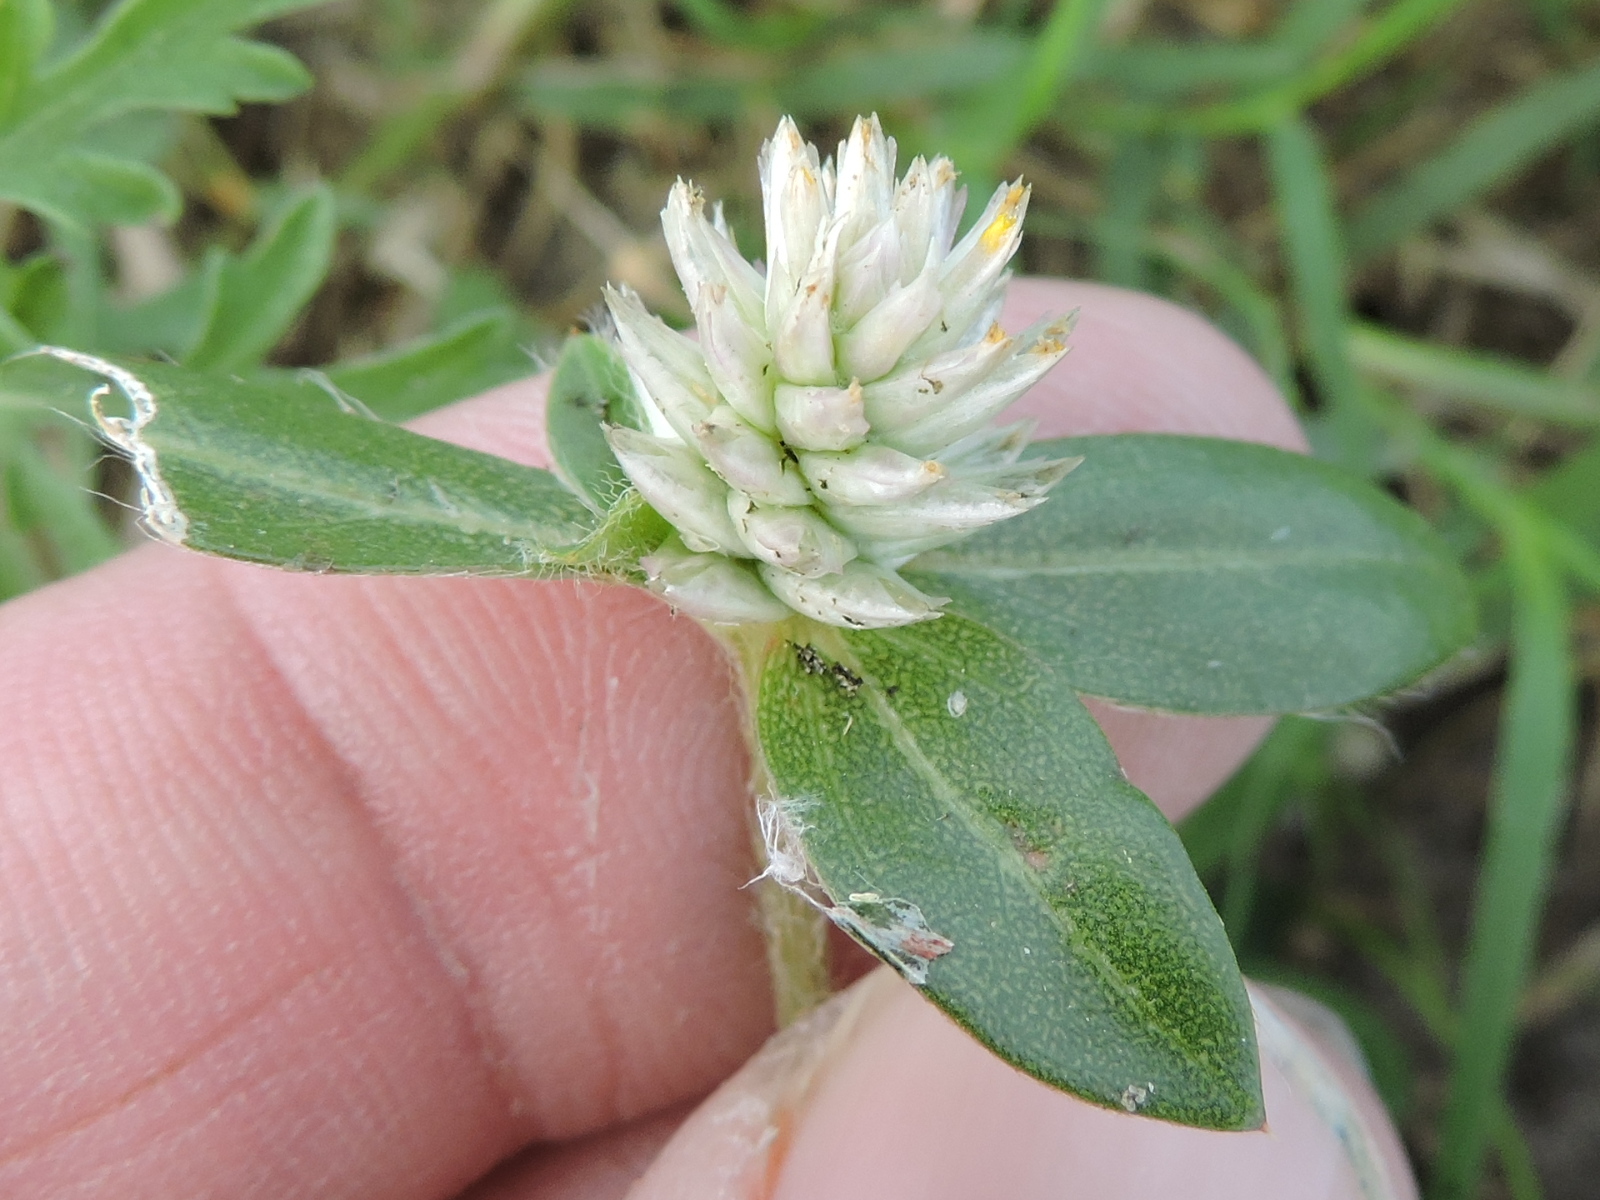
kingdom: Plantae
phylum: Tracheophyta
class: Magnoliopsida
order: Caryophyllales
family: Amaranthaceae
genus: Gomphrena
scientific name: Gomphrena serrata
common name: Arrasa con todo
